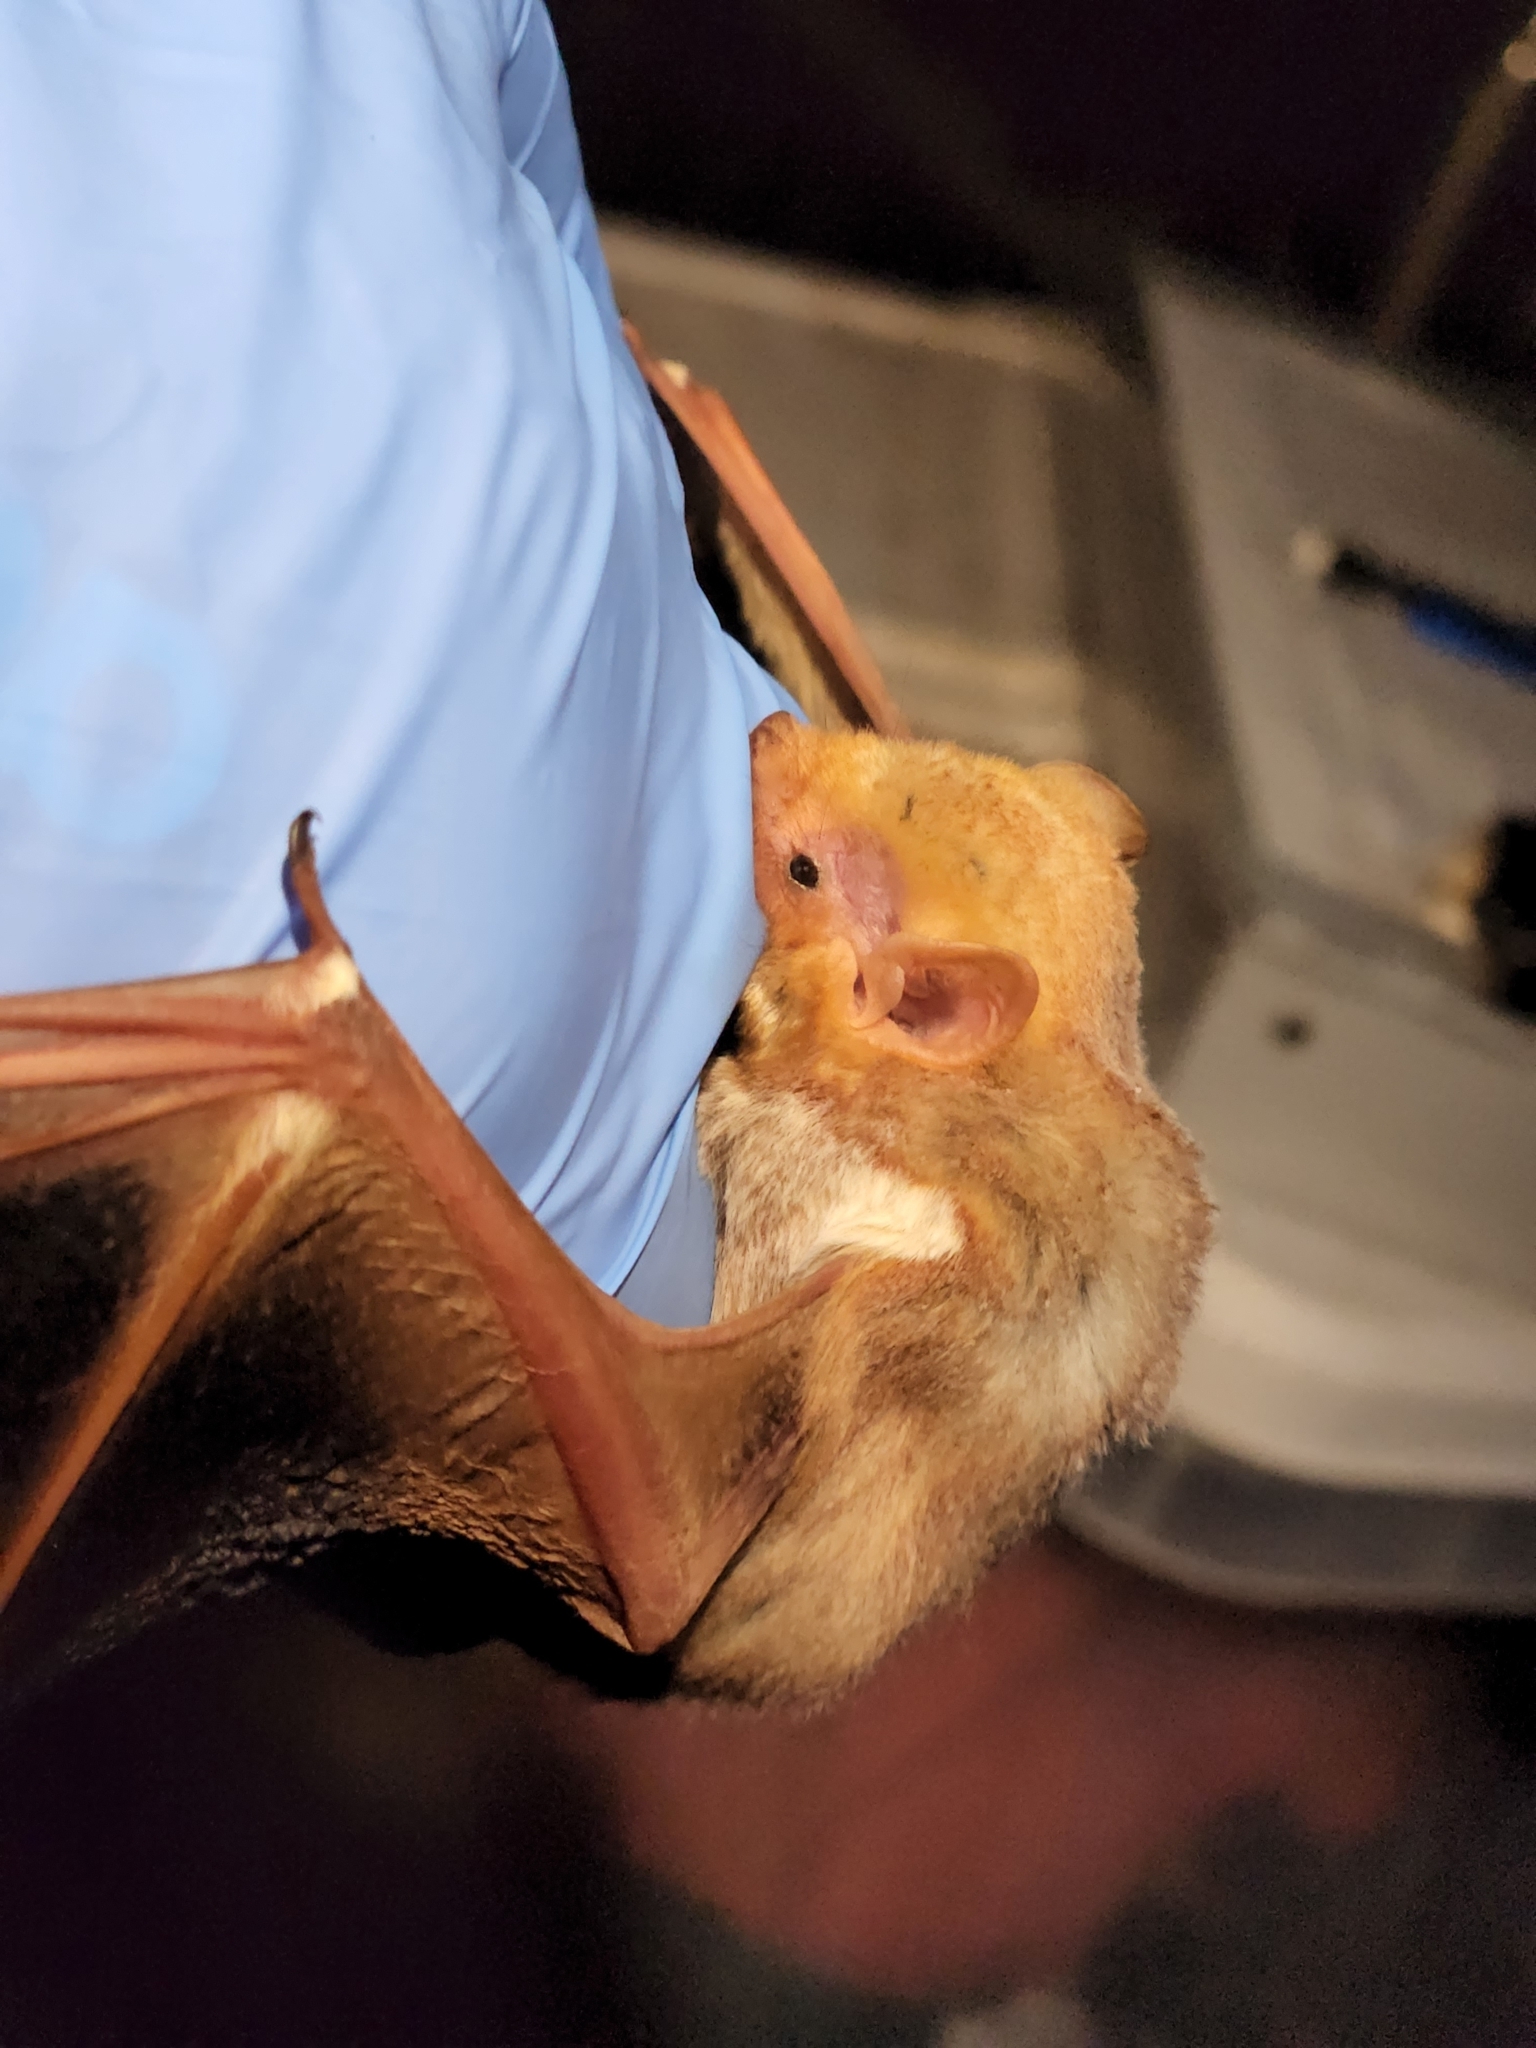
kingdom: Animalia
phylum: Chordata
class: Mammalia
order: Chiroptera
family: Vespertilionidae
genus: Lasiurus
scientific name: Lasiurus borealis
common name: Eastern red bat
